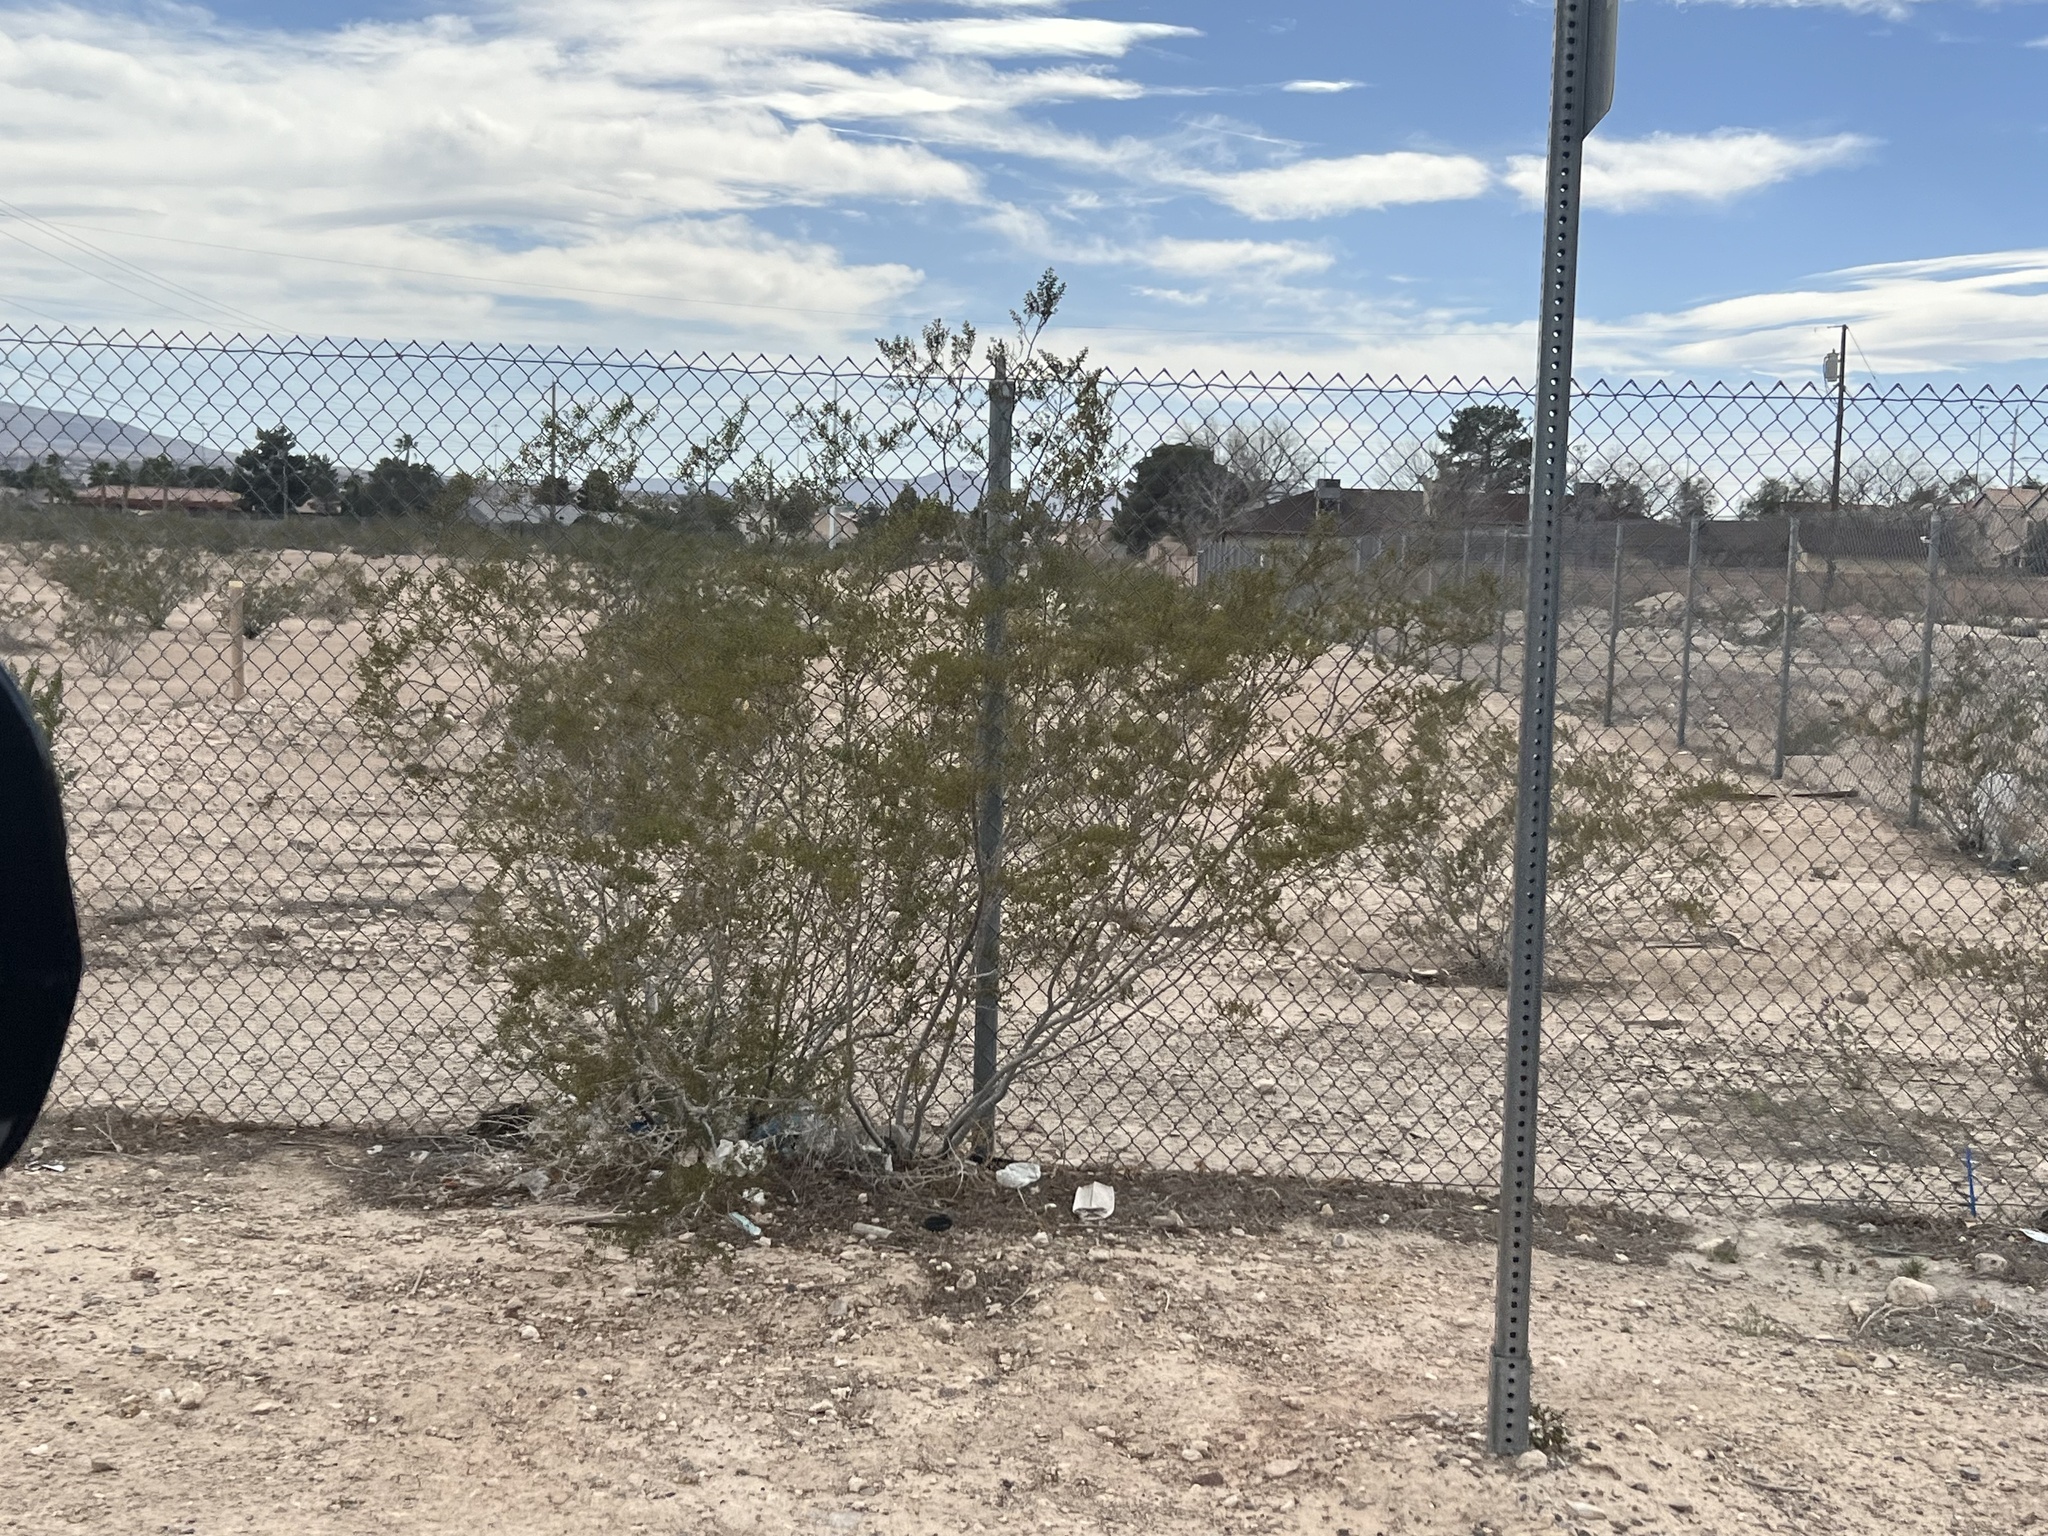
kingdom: Plantae
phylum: Tracheophyta
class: Magnoliopsida
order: Zygophyllales
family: Zygophyllaceae
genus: Larrea
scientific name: Larrea tridentata
